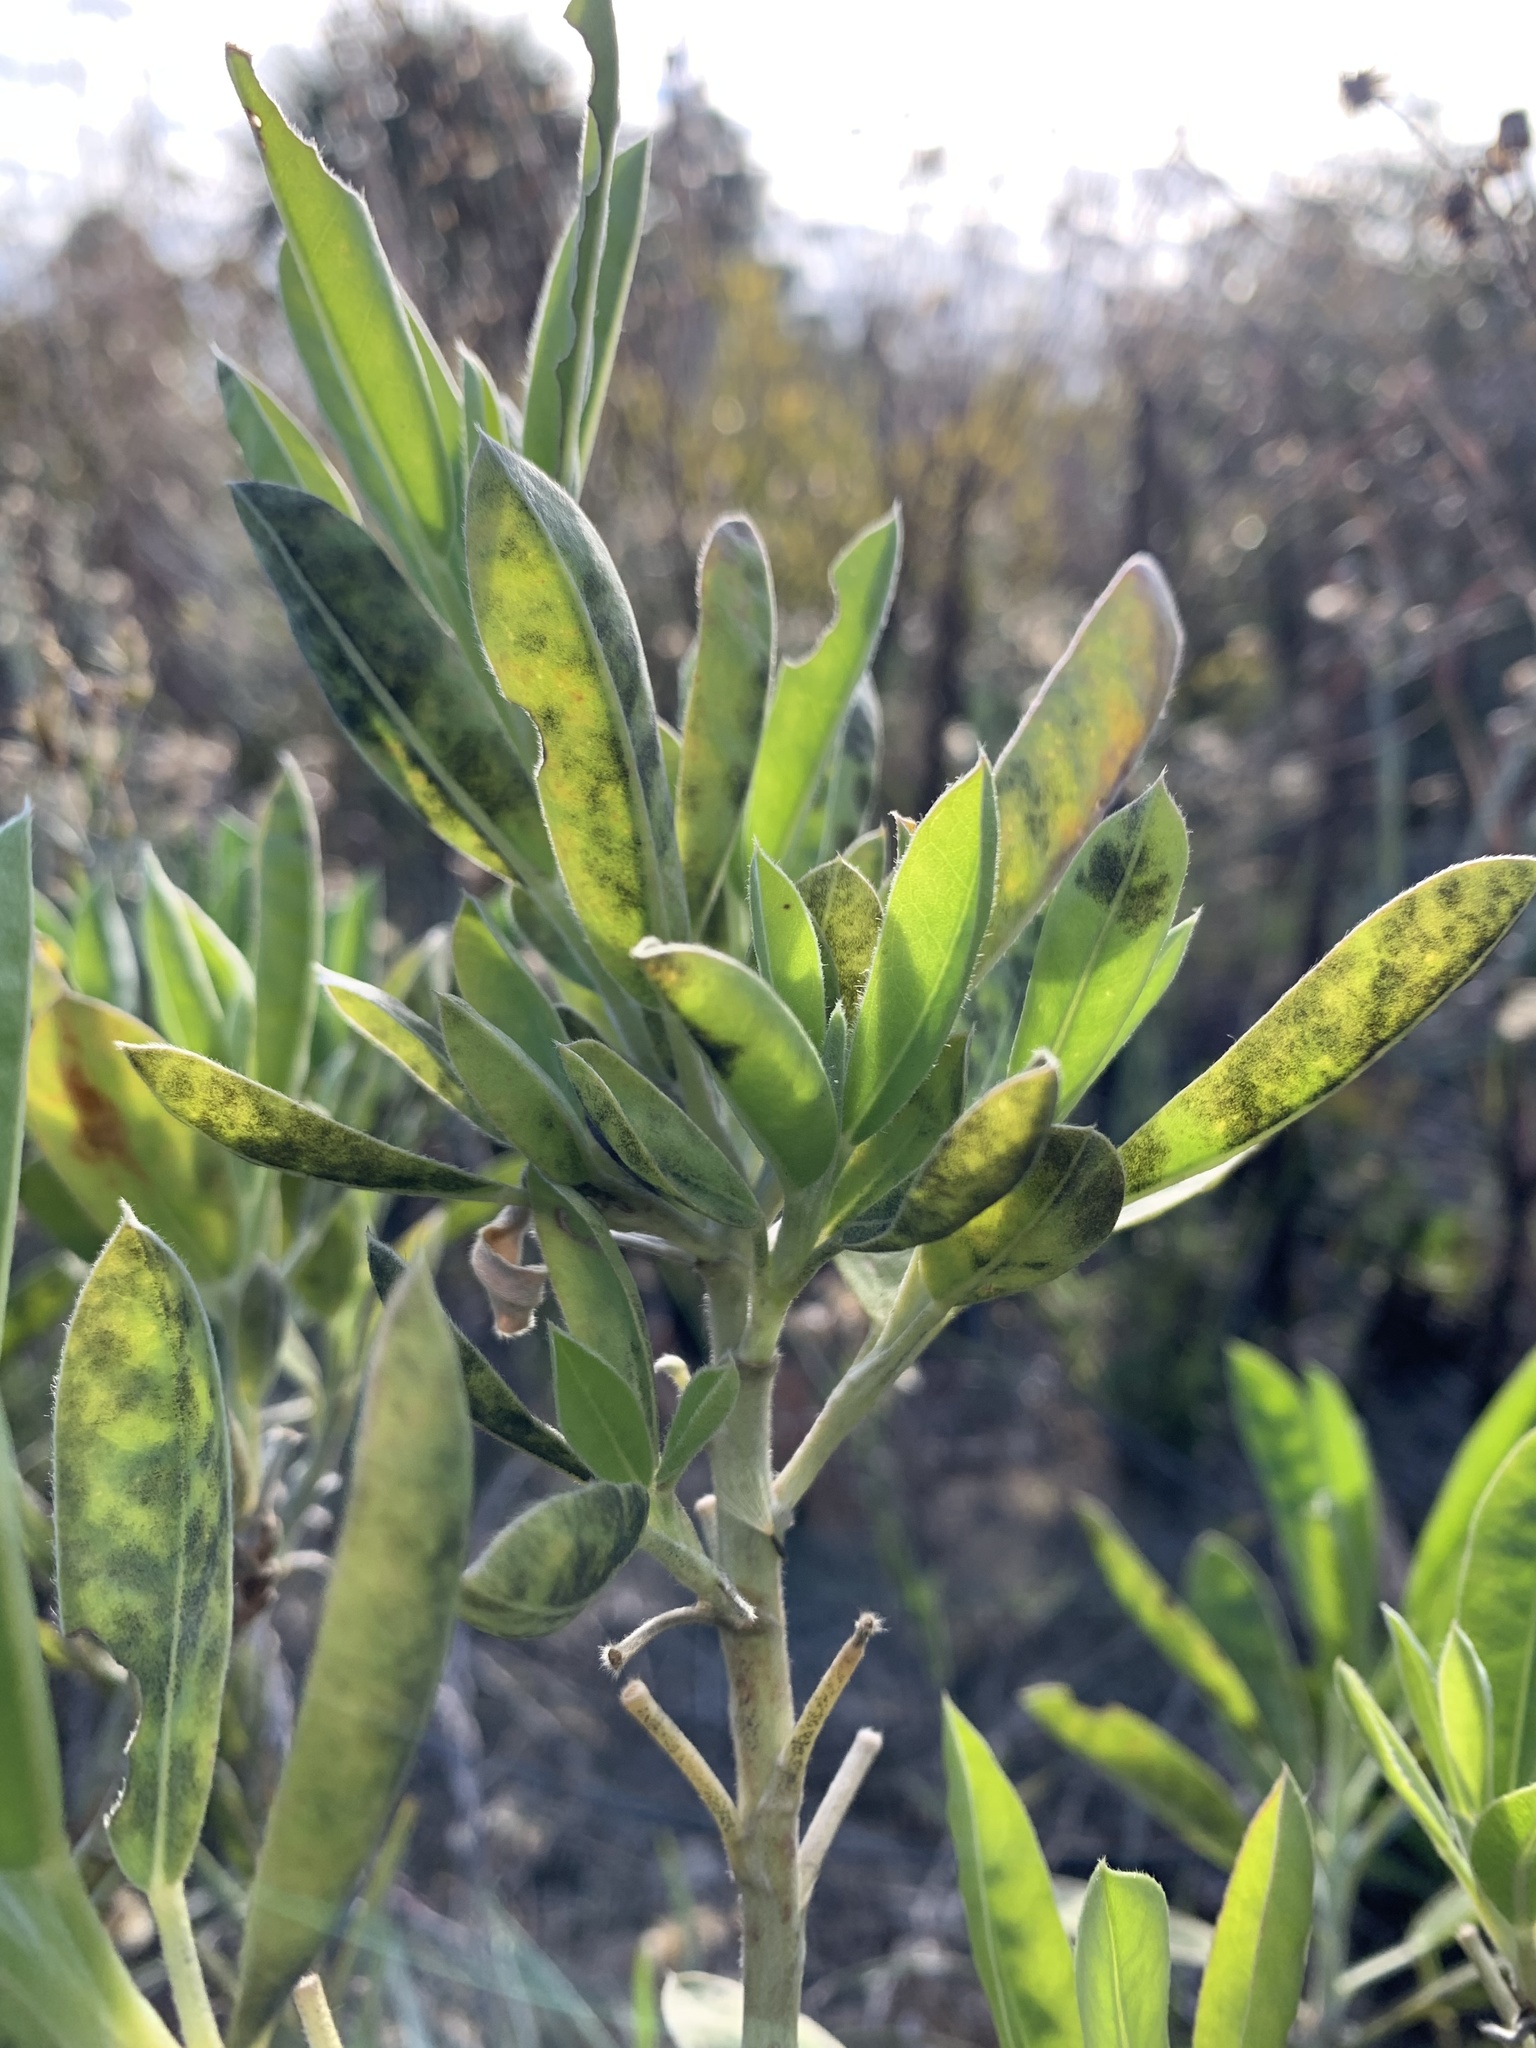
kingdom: Plantae
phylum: Tracheophyta
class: Magnoliopsida
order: Fabales
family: Fabaceae
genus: Lupinus
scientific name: Lupinus
